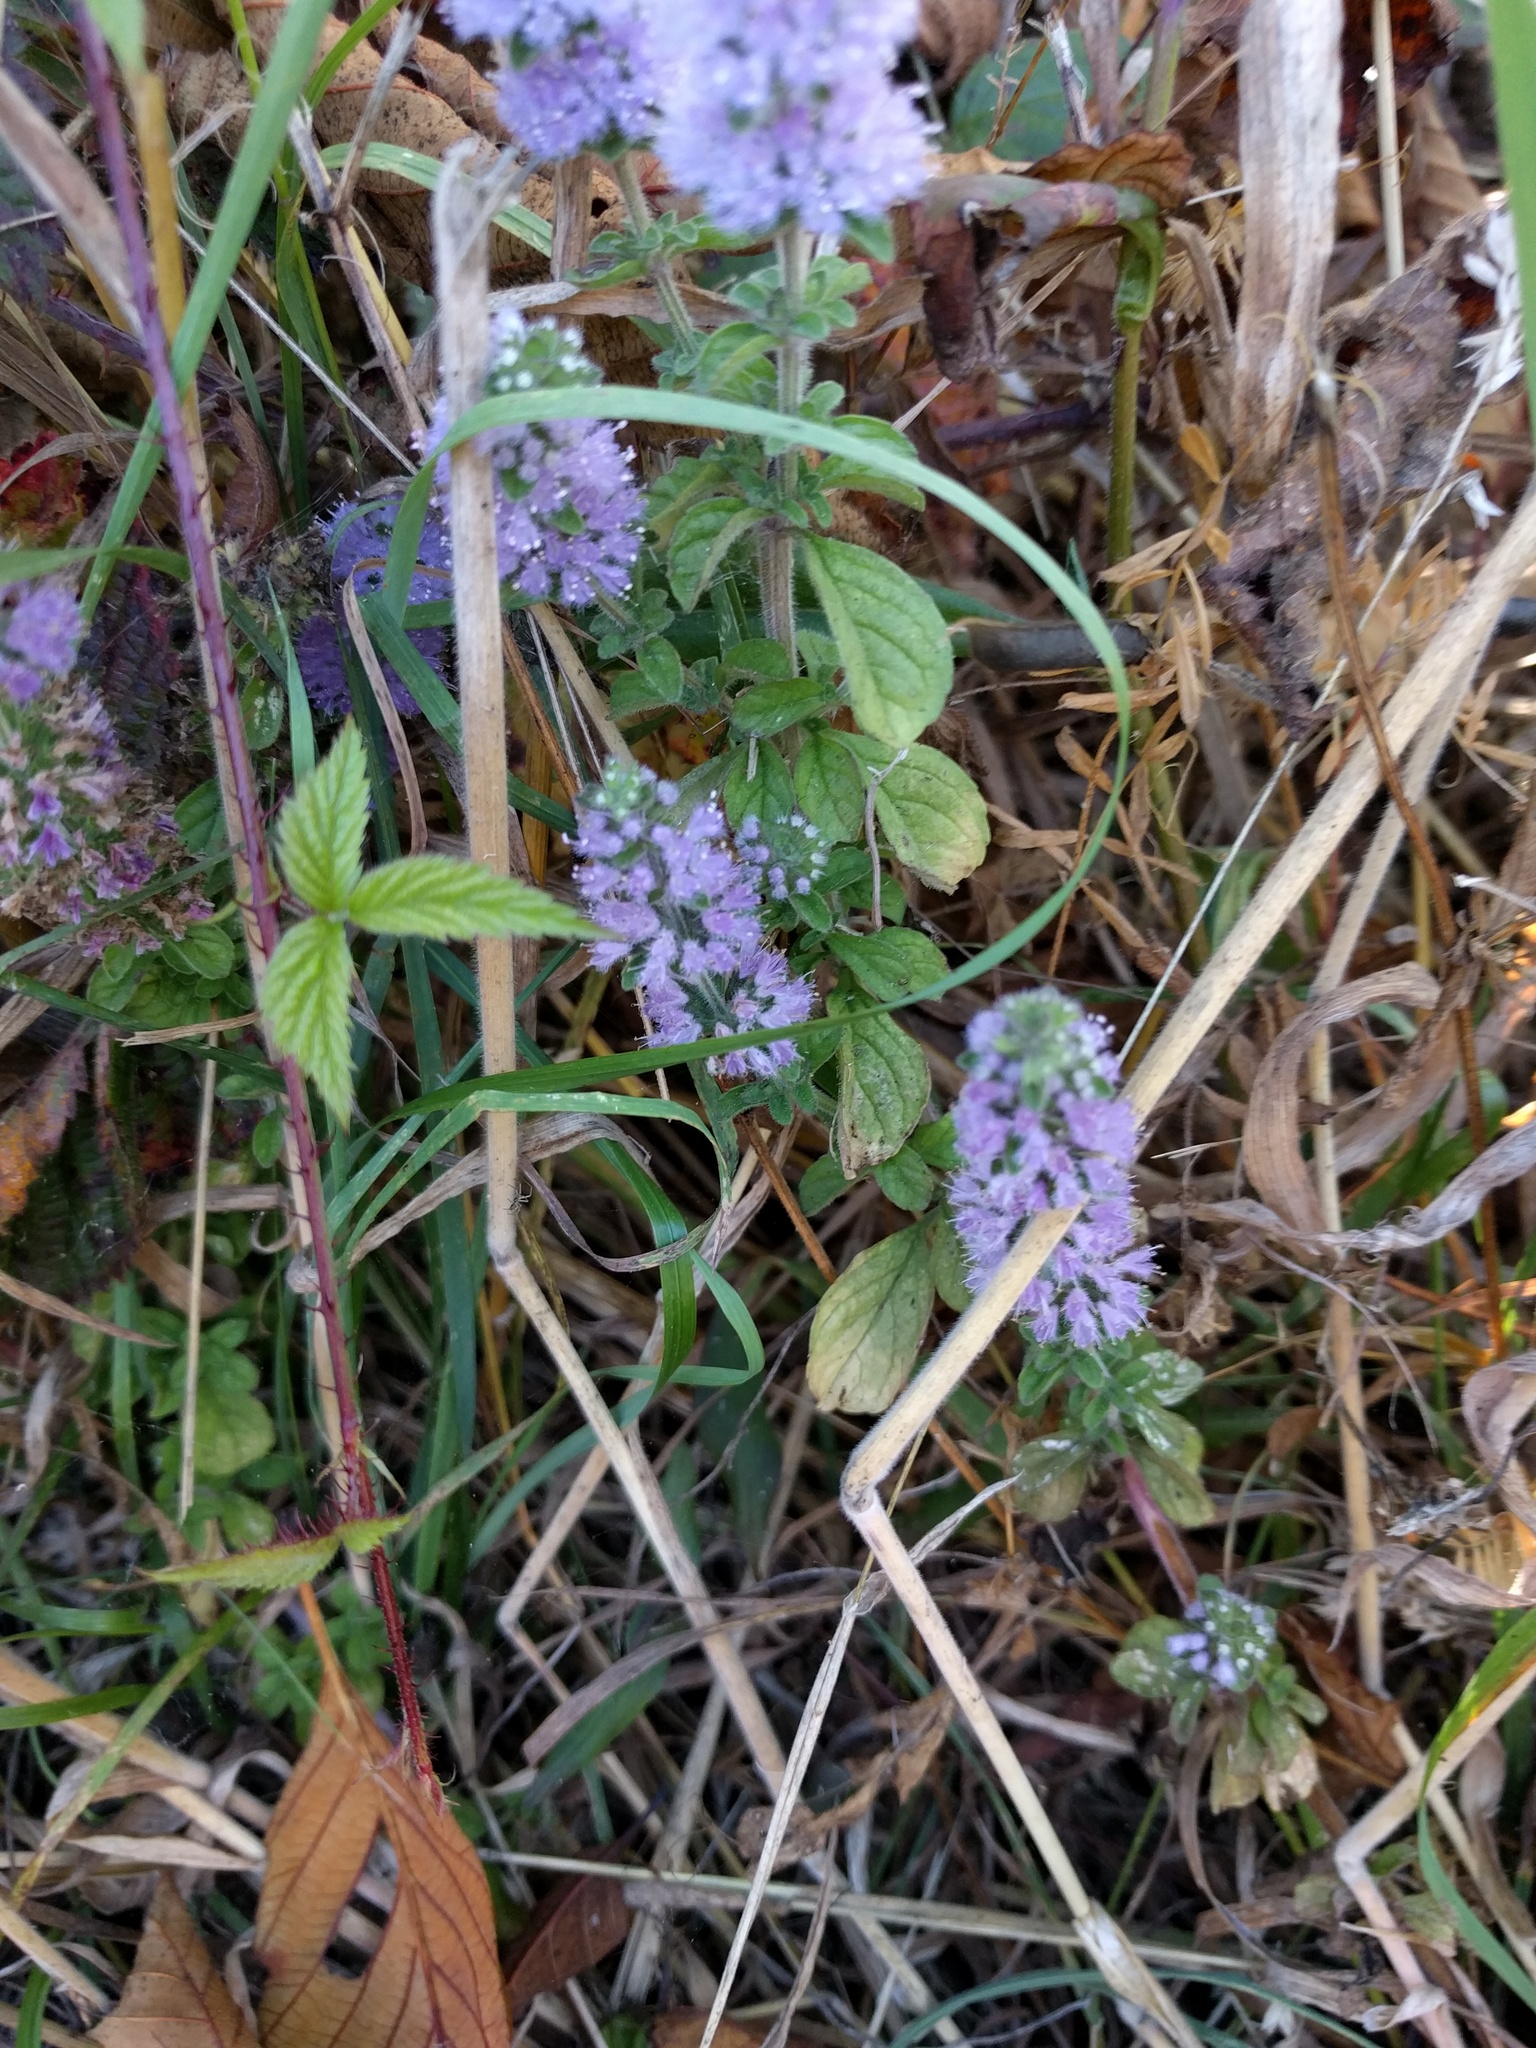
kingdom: Plantae
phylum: Tracheophyta
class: Magnoliopsida
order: Lamiales
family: Lamiaceae
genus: Mentha
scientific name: Mentha pulegium
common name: Pennyroyal
